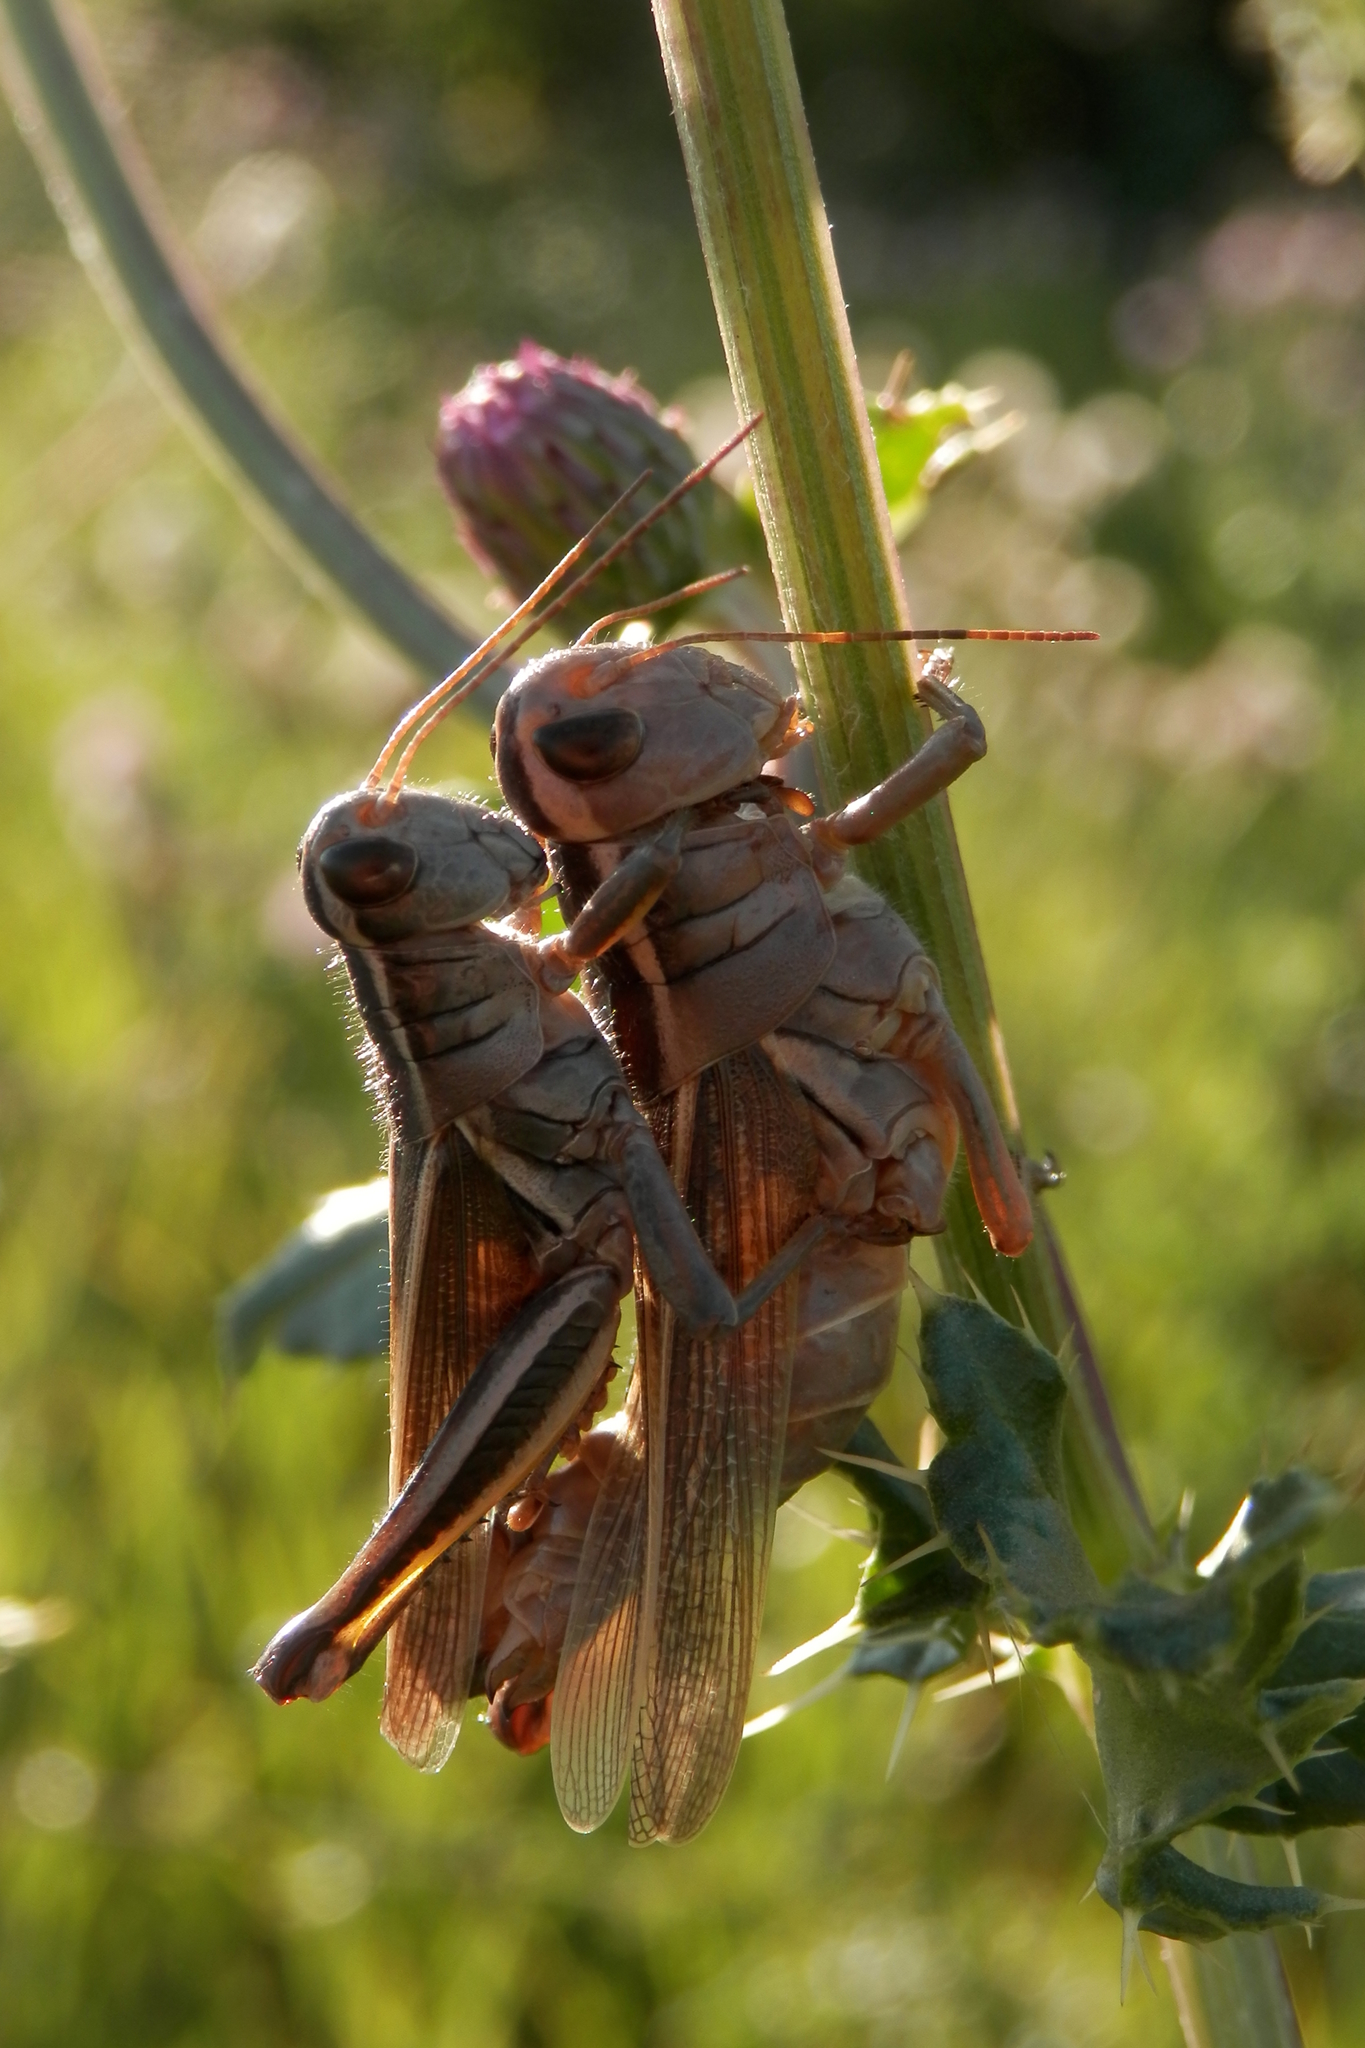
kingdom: Animalia
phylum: Arthropoda
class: Insecta
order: Orthoptera
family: Acrididae
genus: Melanoplus
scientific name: Melanoplus bivittatus
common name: Two-striped grasshopper
